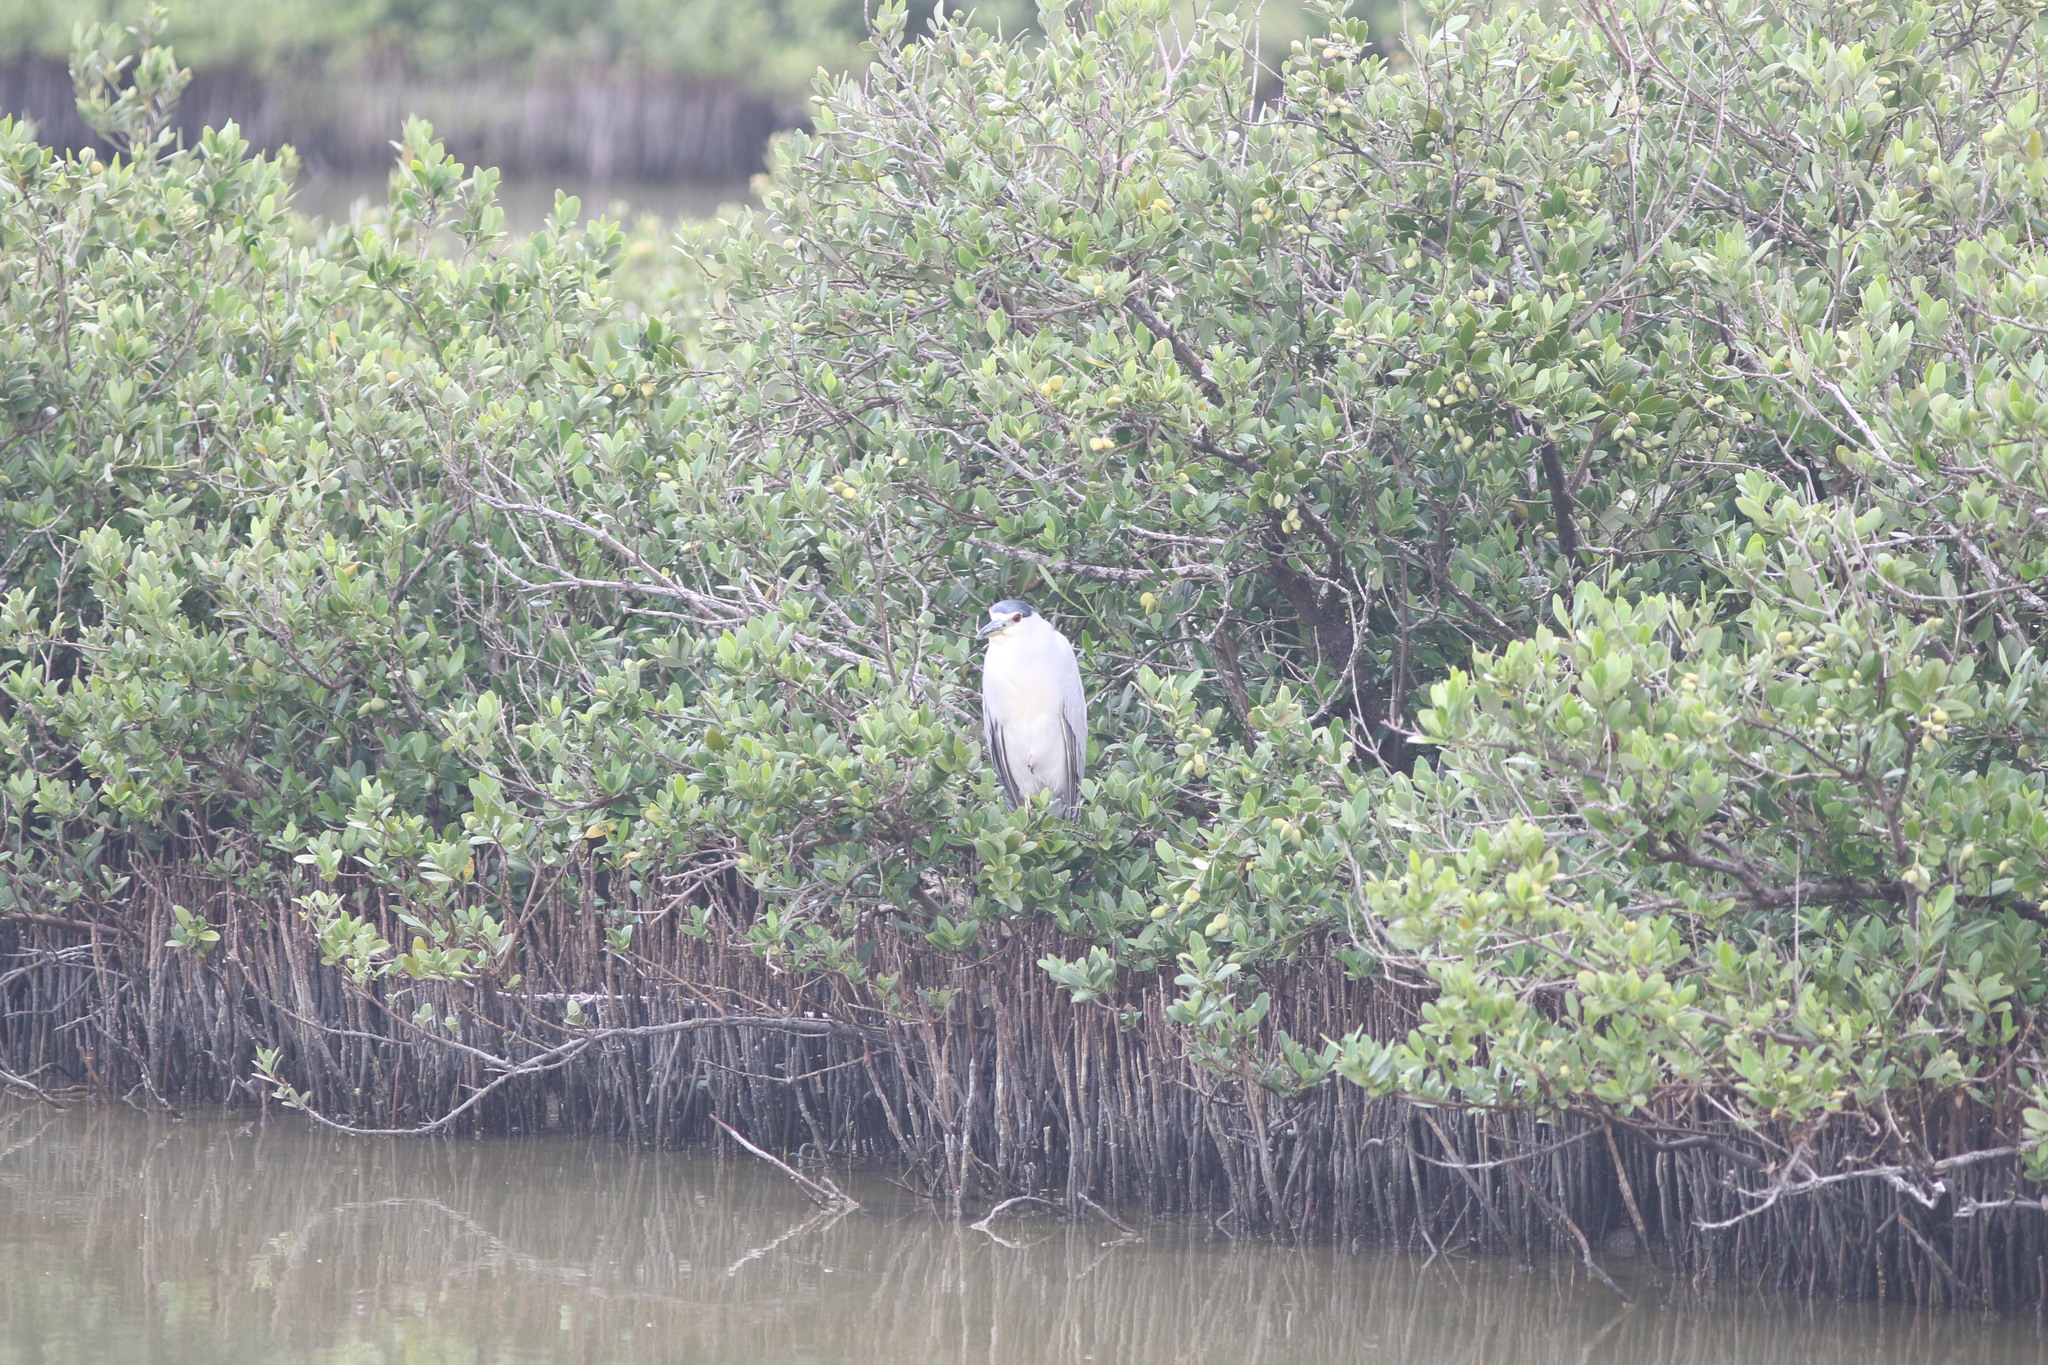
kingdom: Animalia
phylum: Chordata
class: Aves
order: Pelecaniformes
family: Ardeidae
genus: Nycticorax
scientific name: Nycticorax nycticorax
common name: Black-crowned night heron
